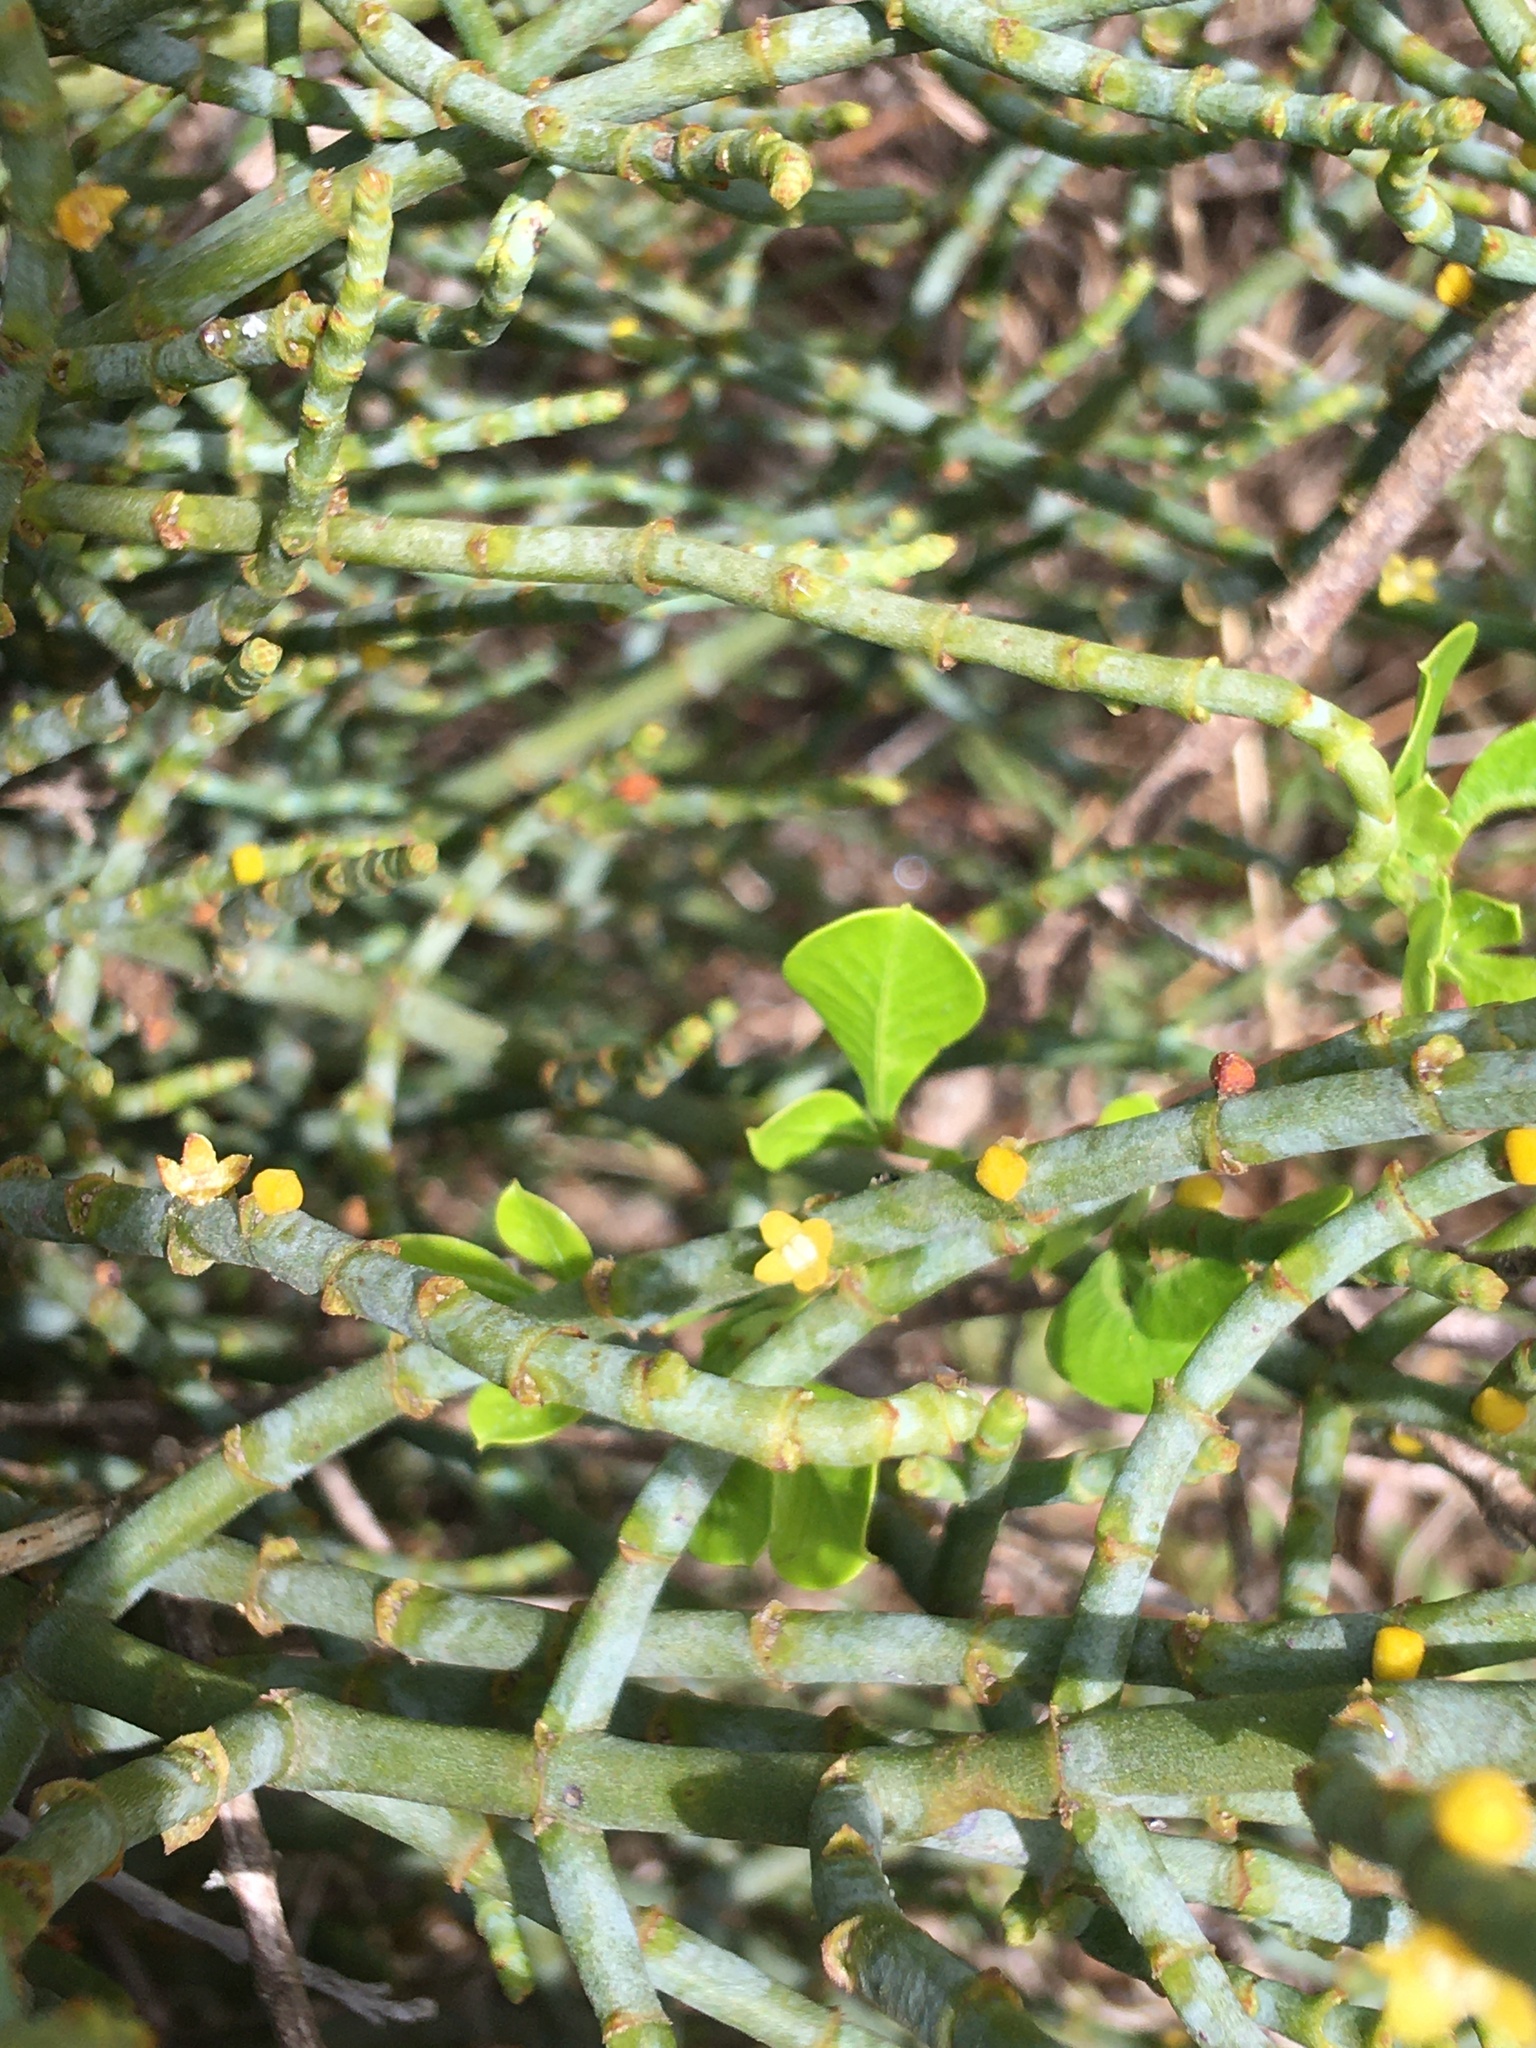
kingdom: Plantae
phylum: Tracheophyta
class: Magnoliopsida
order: Santalales
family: Viscaceae
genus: Viscum
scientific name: Viscum capense
